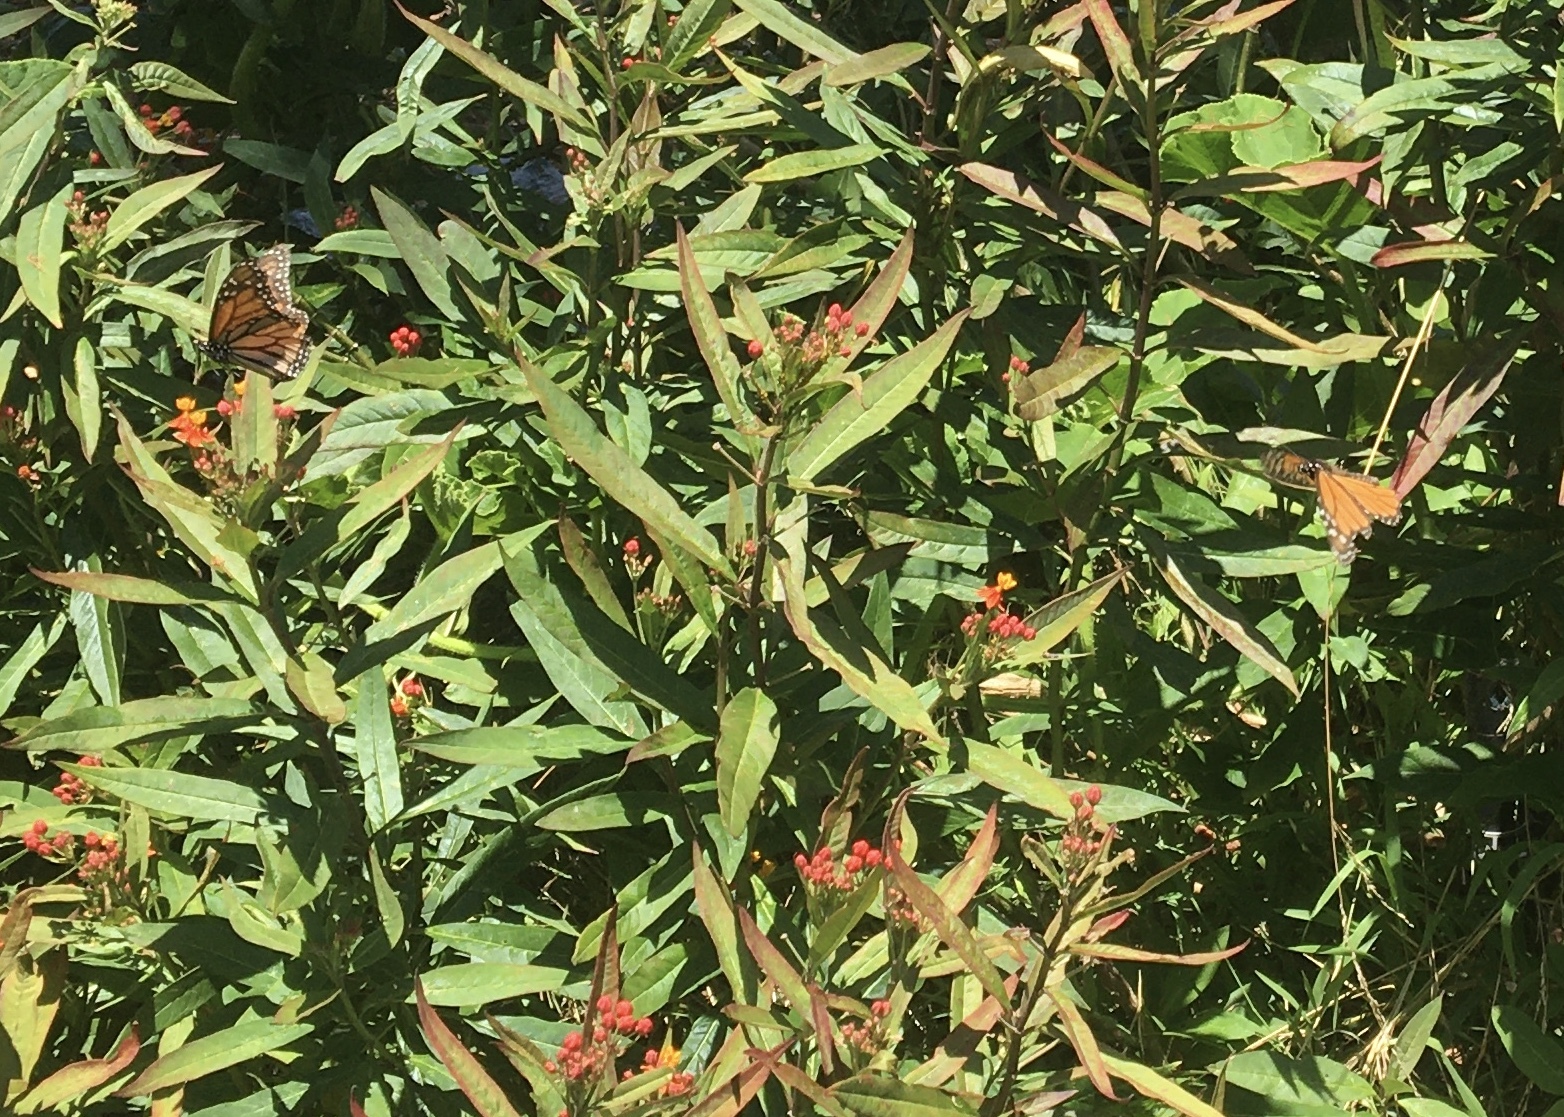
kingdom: Animalia
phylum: Arthropoda
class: Insecta
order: Lepidoptera
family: Nymphalidae
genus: Danaus
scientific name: Danaus plexippus
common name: Monarch
